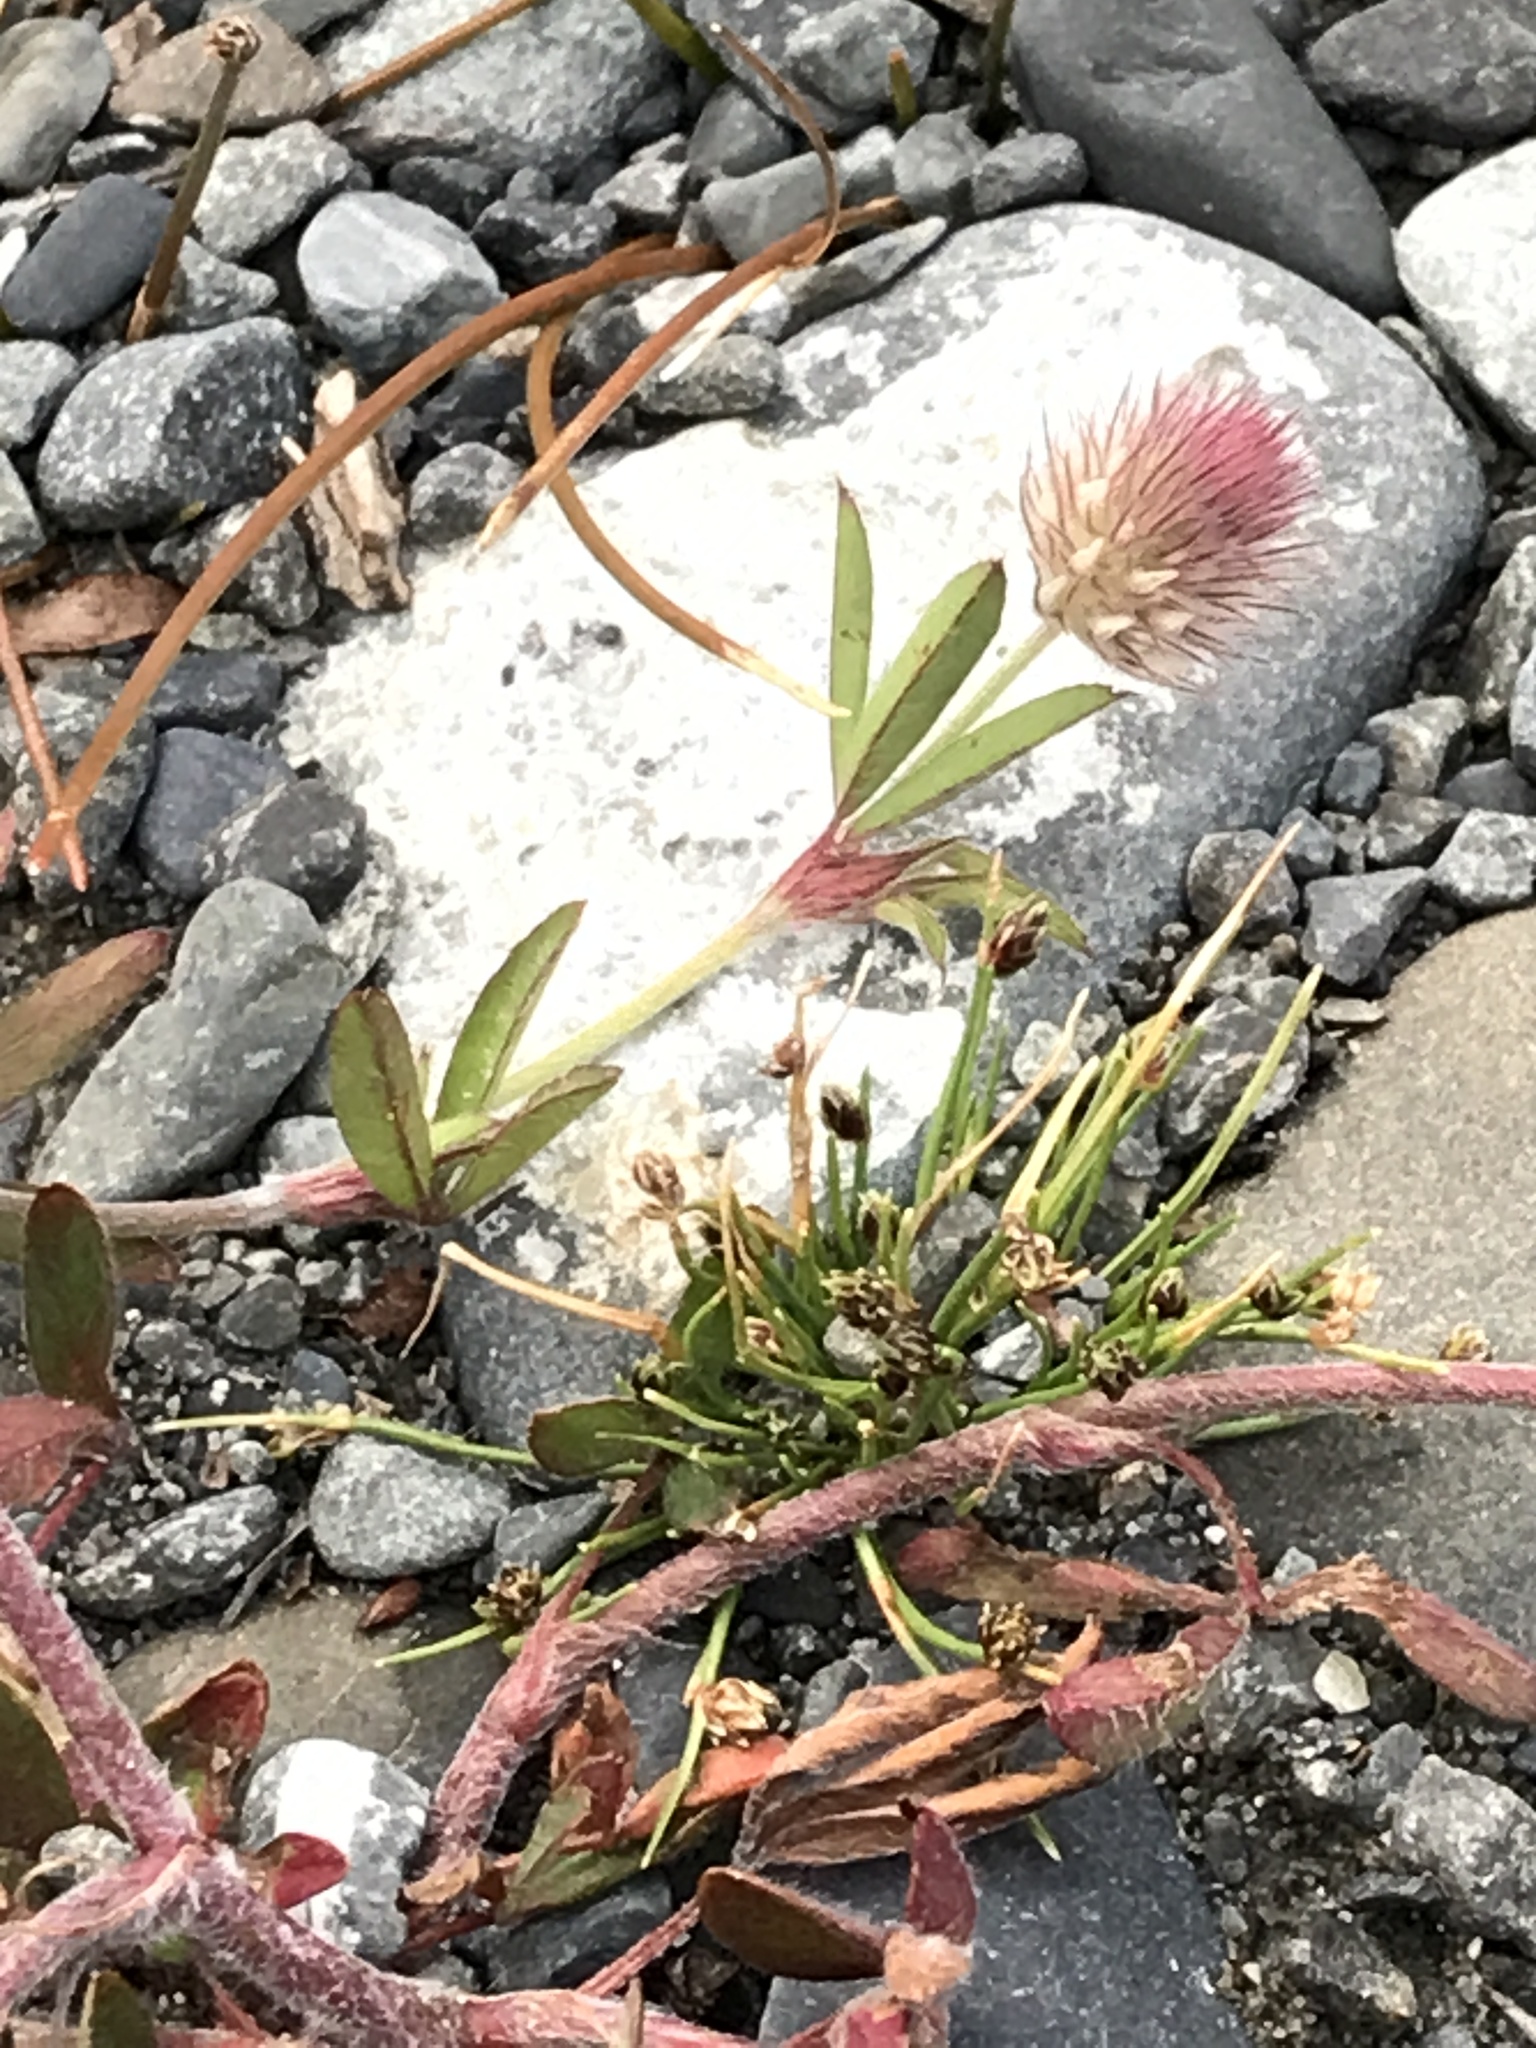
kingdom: Plantae
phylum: Tracheophyta
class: Magnoliopsida
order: Fabales
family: Fabaceae
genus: Trifolium
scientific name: Trifolium arvense
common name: Hare's-foot clover
